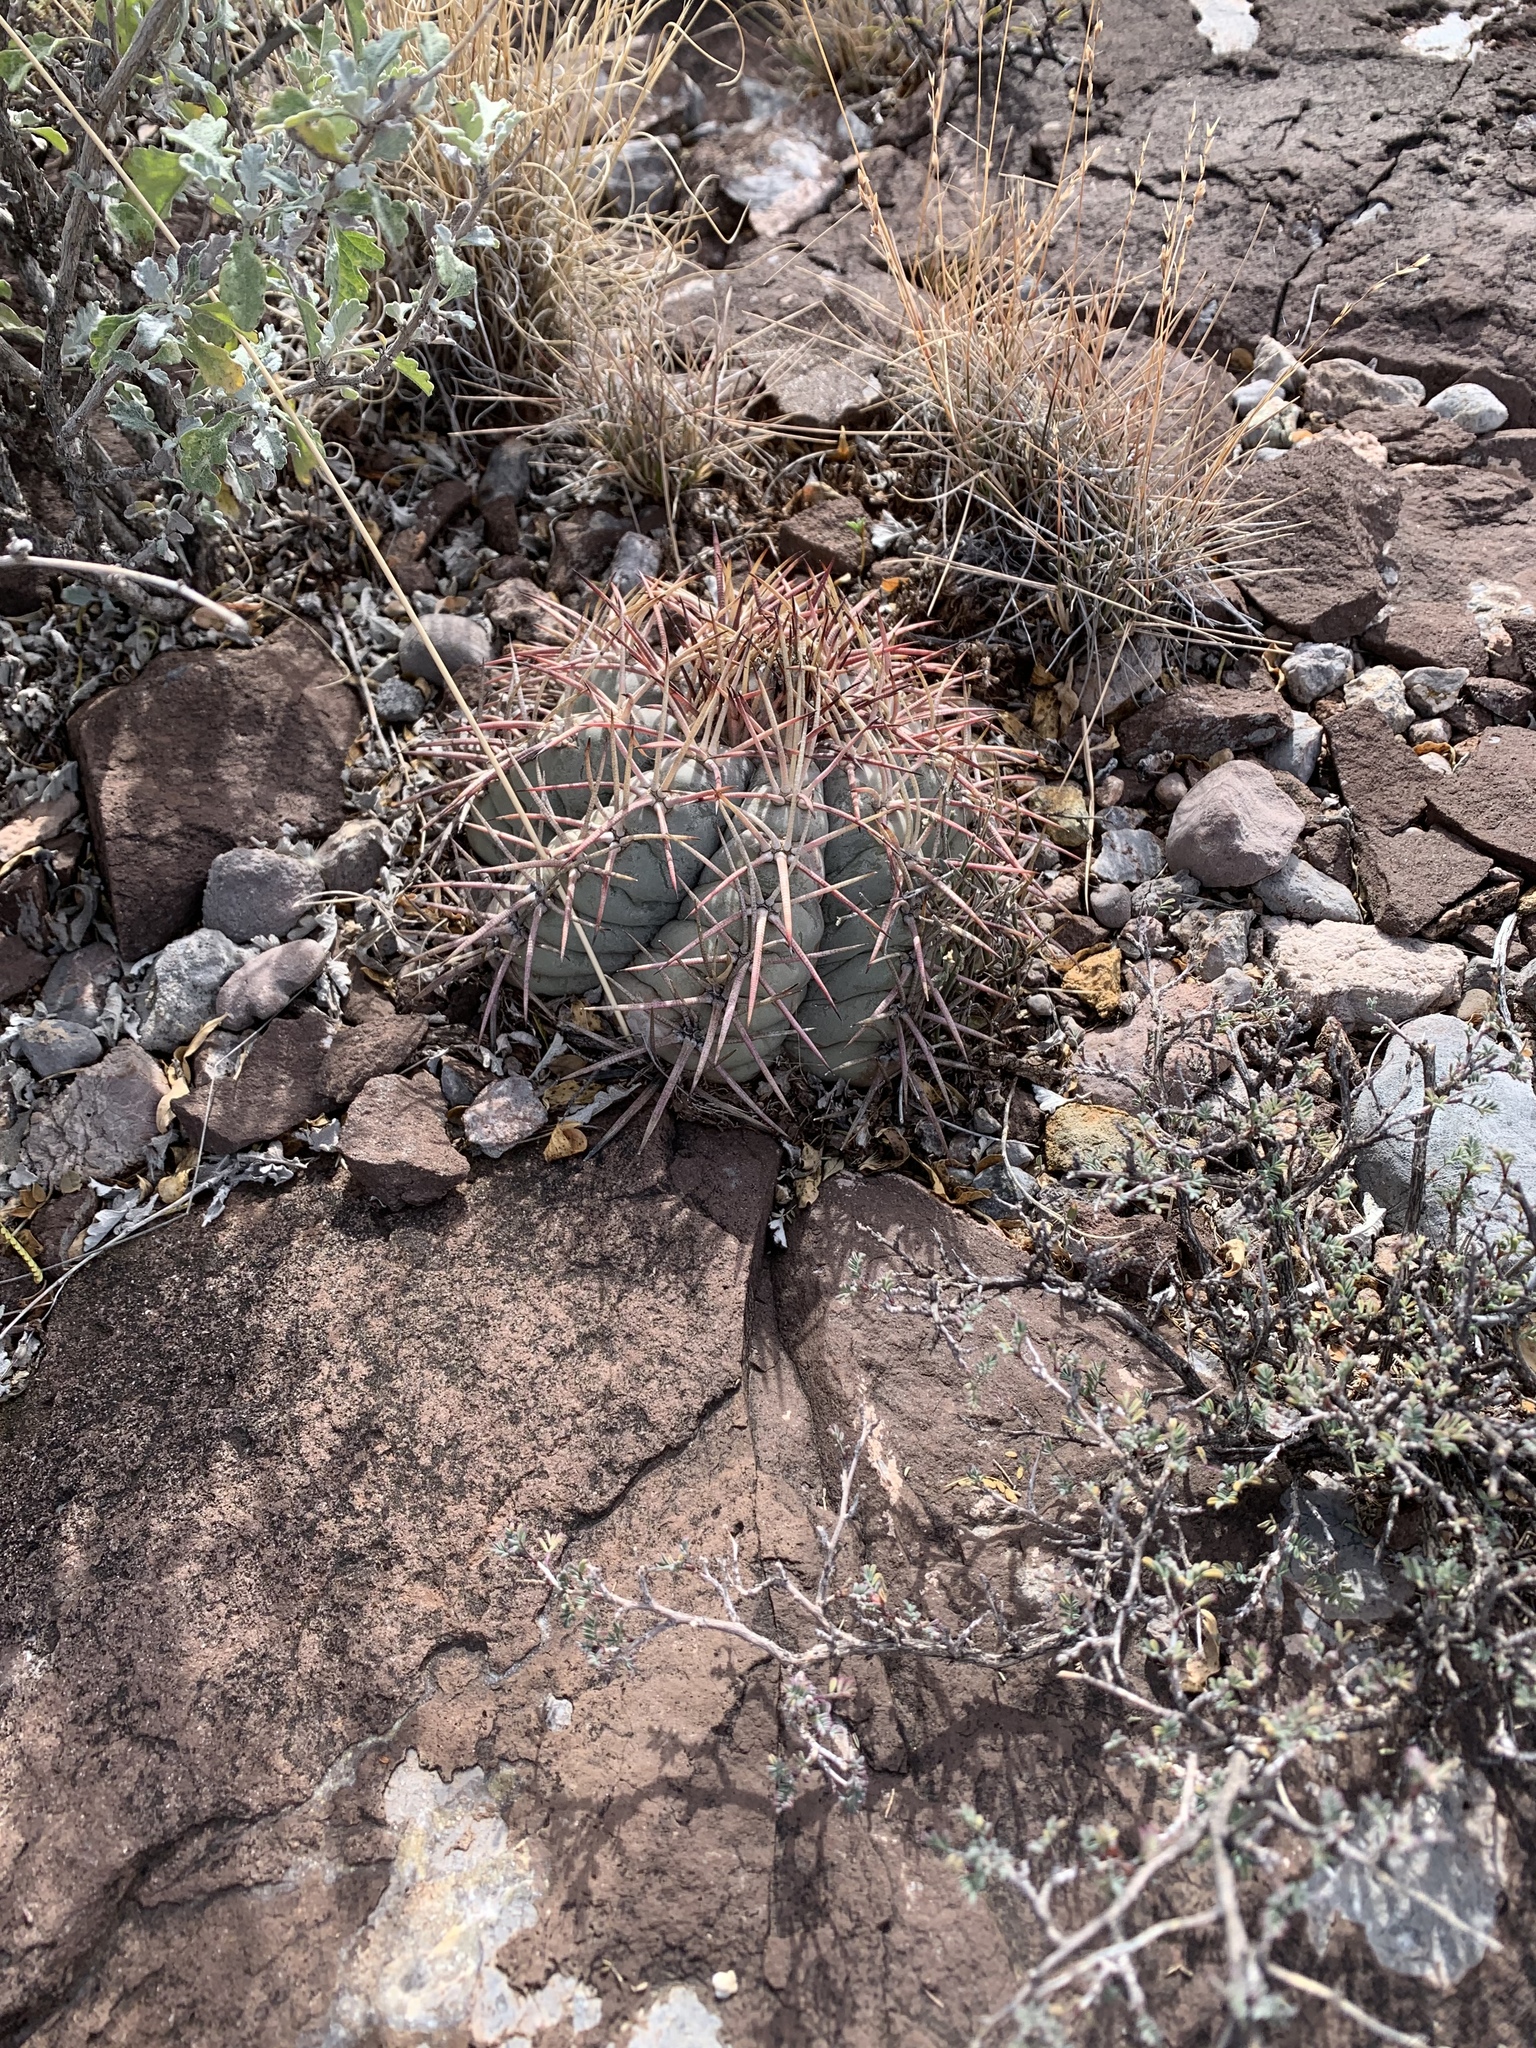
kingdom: Plantae
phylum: Tracheophyta
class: Magnoliopsida
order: Caryophyllales
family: Cactaceae
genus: Echinocactus
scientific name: Echinocactus horizonthalonius
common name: Devilshead
